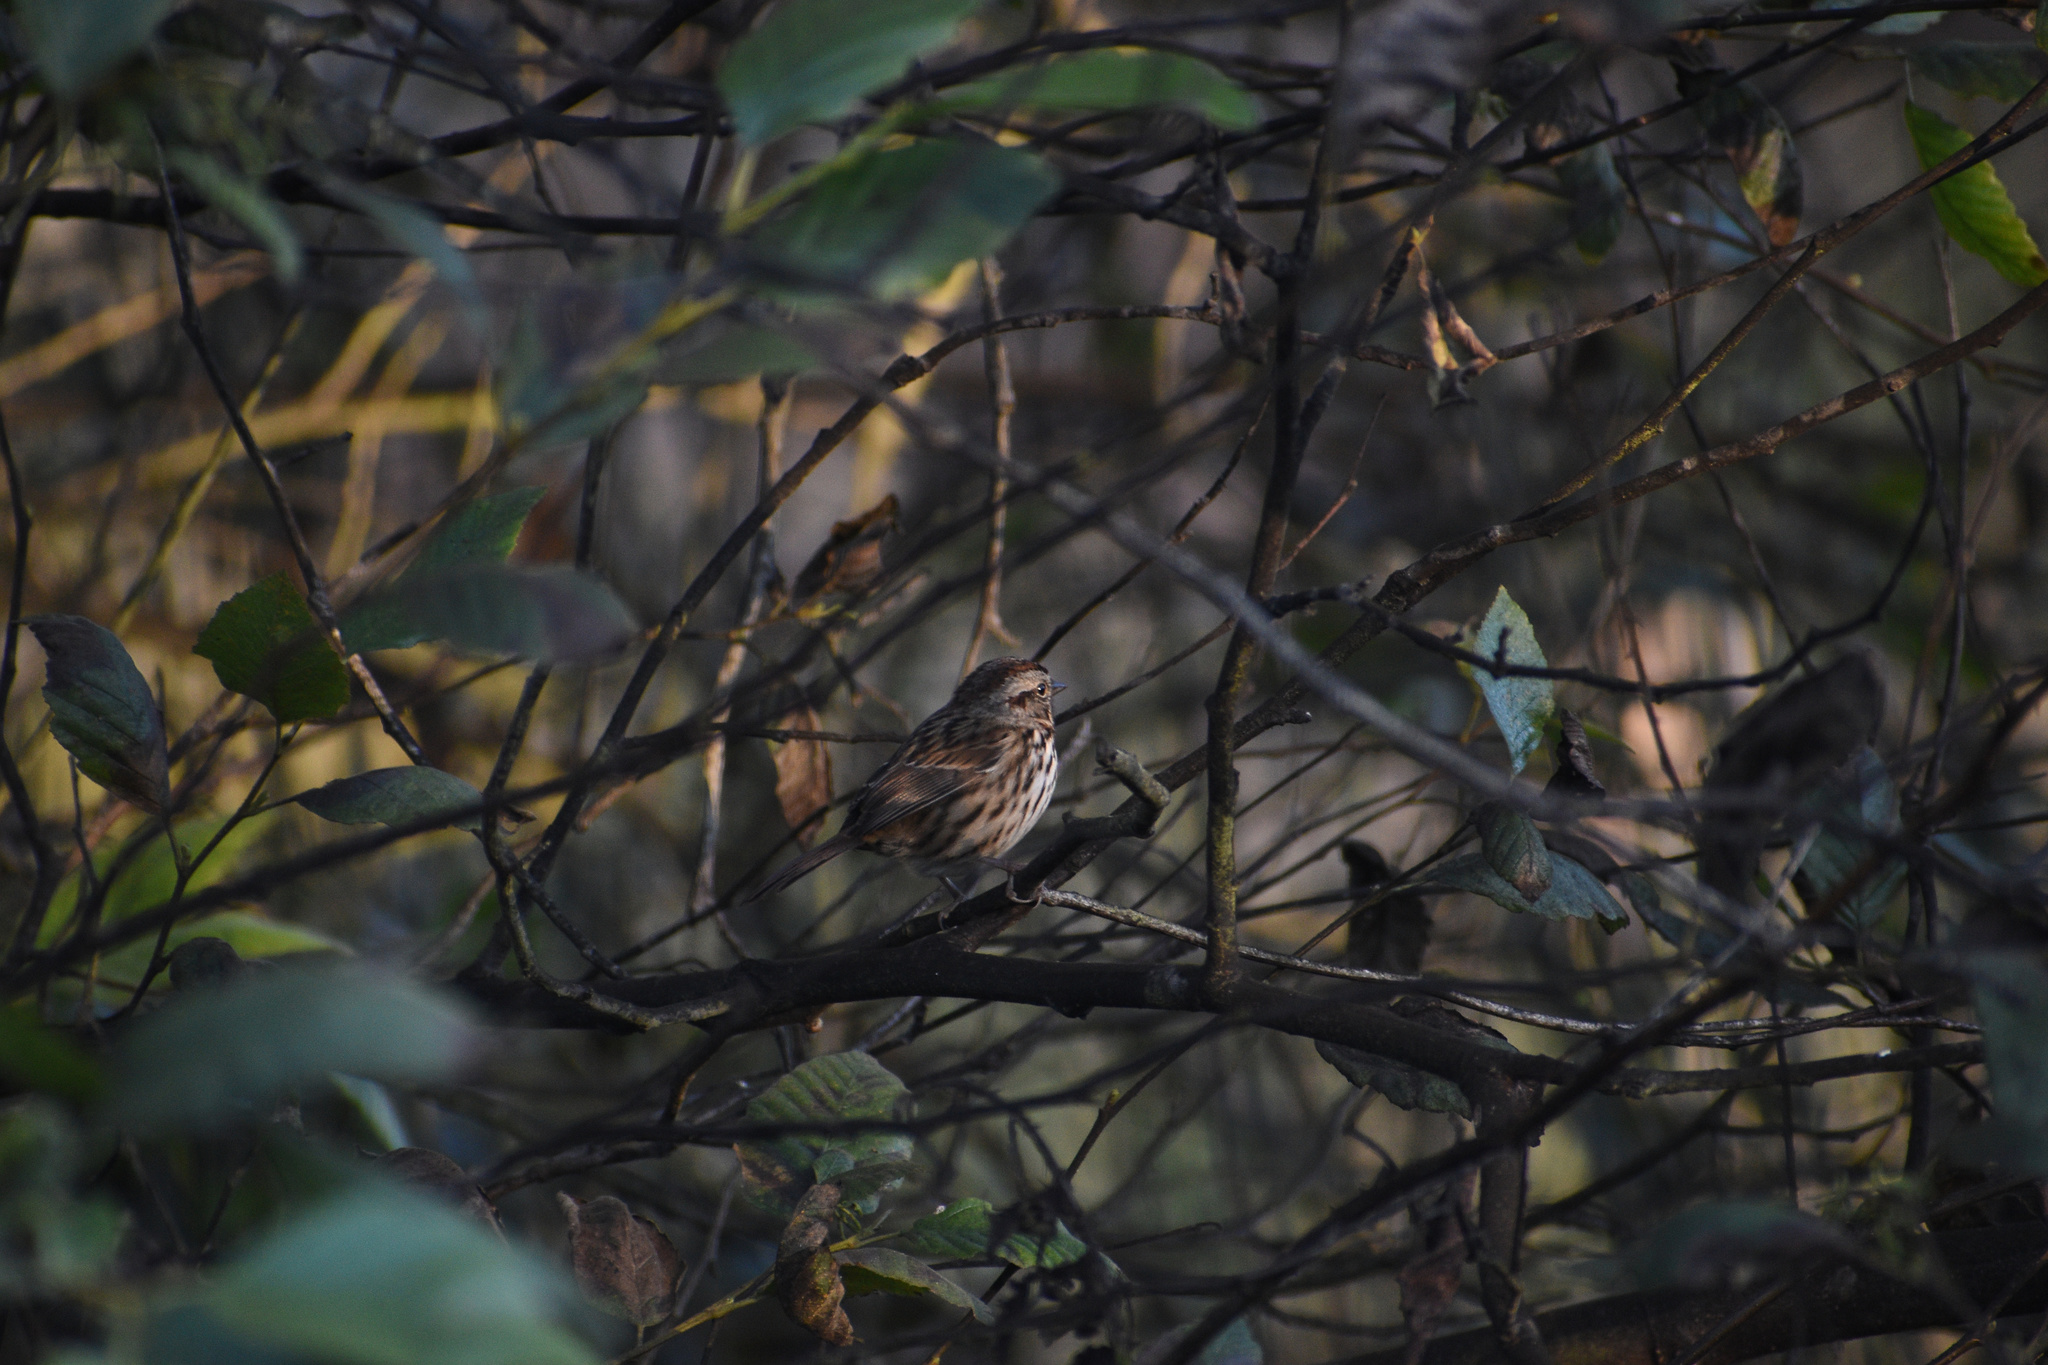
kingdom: Animalia
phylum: Chordata
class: Aves
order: Passeriformes
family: Passerellidae
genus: Melospiza
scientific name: Melospiza melodia
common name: Song sparrow
